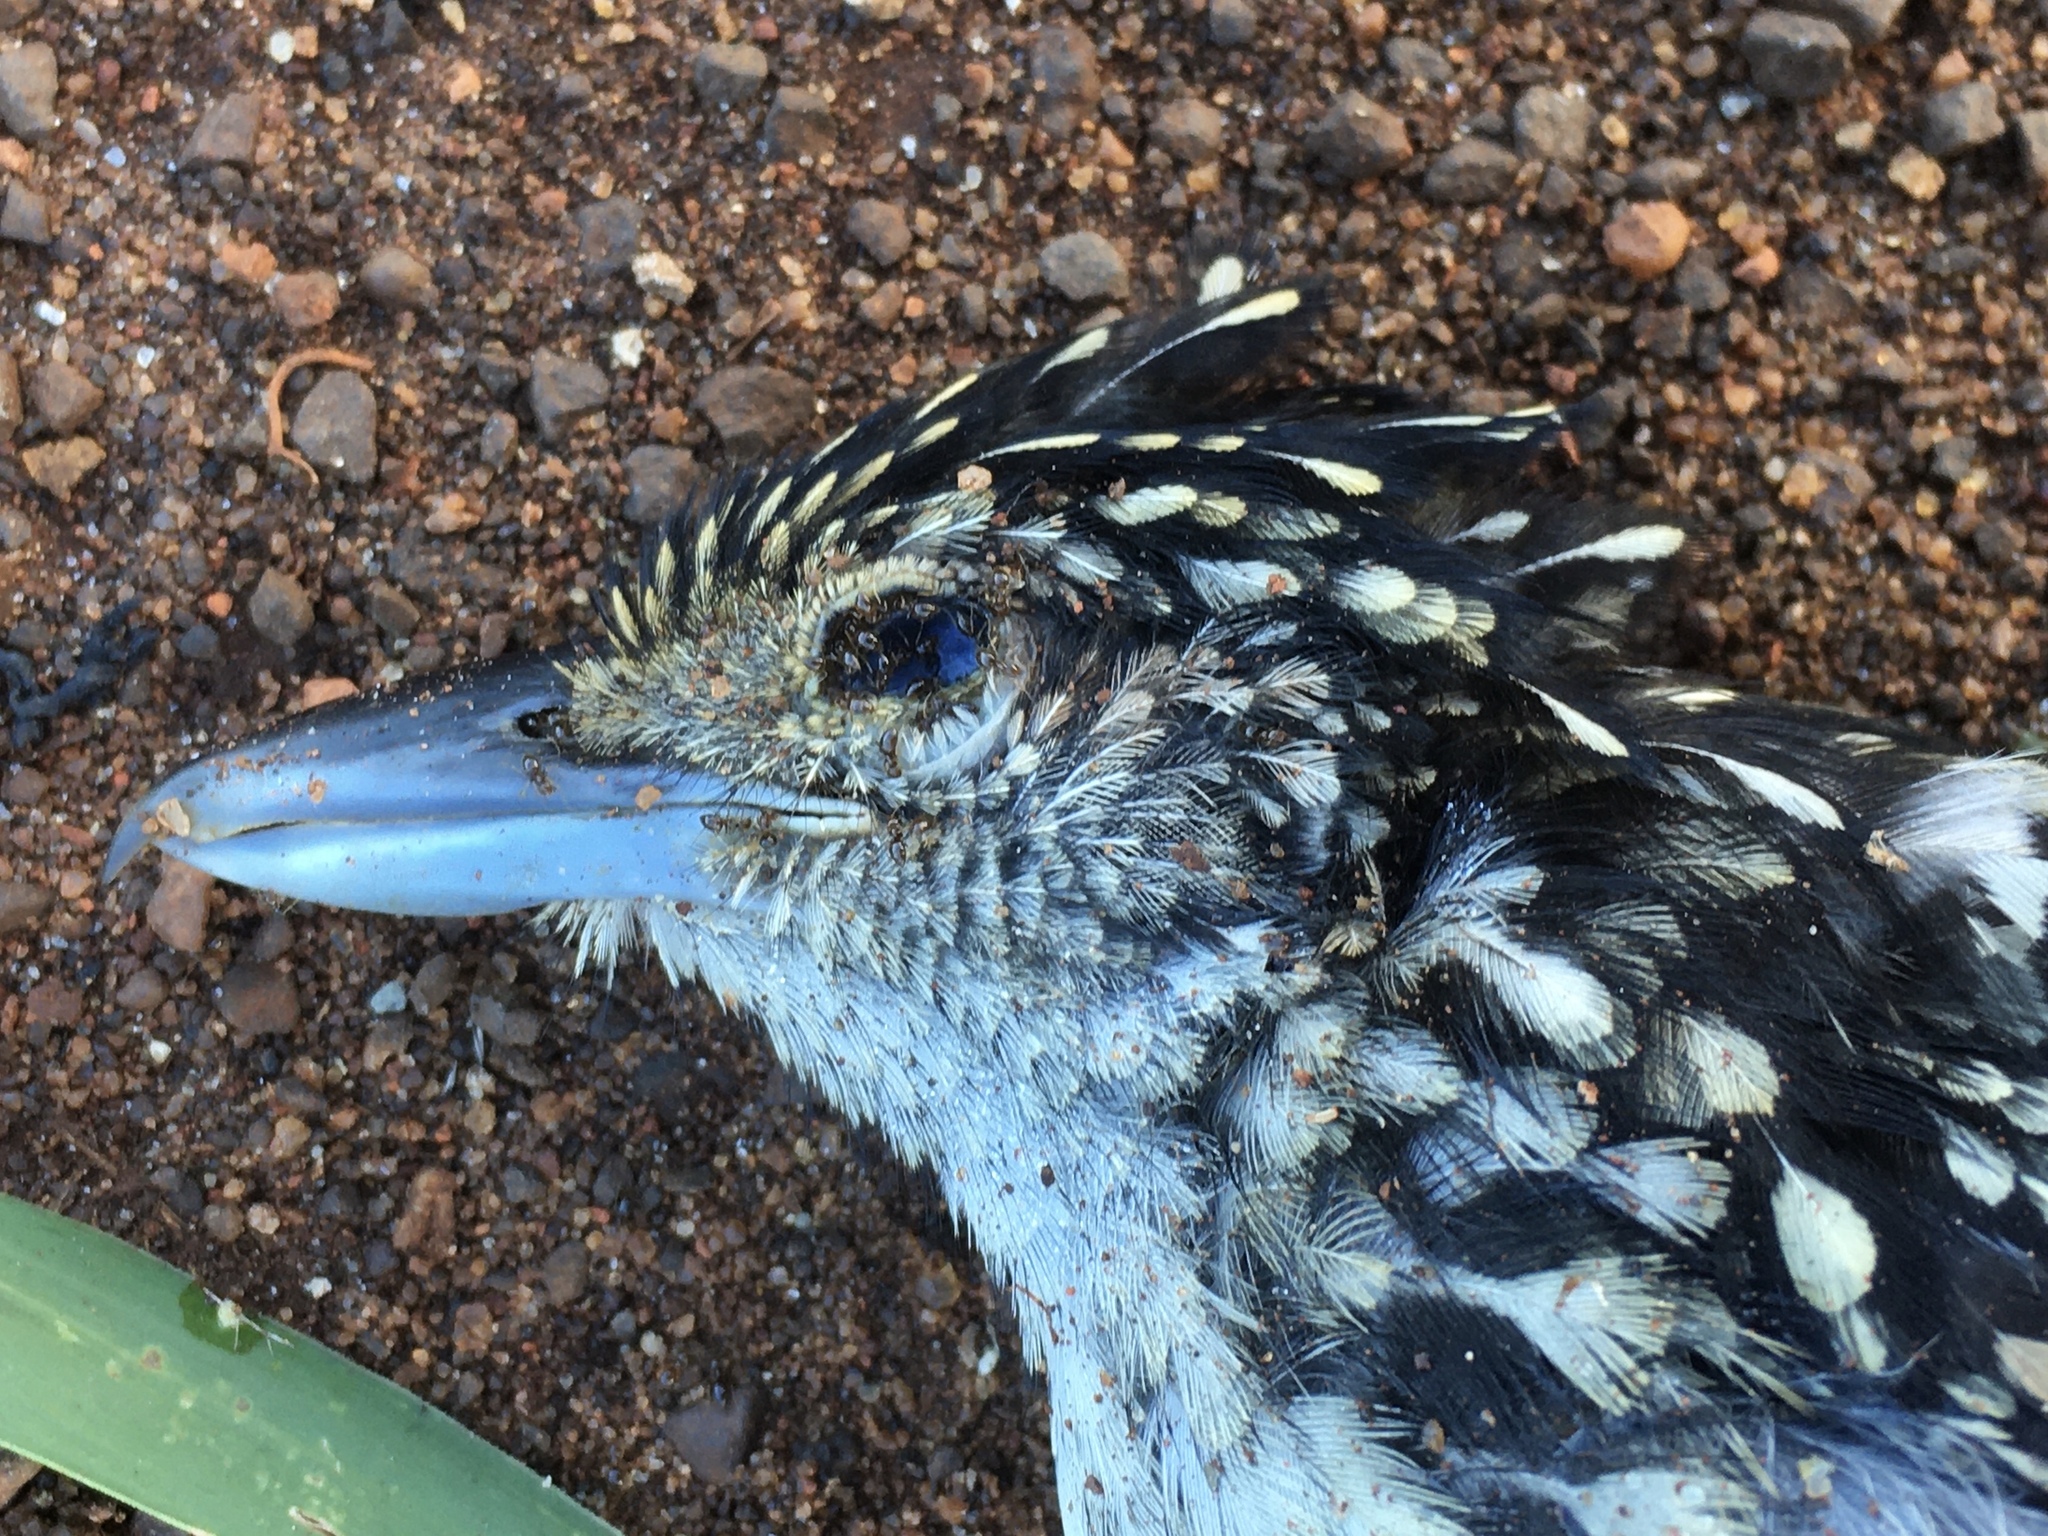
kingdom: Animalia
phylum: Chordata
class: Aves
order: Passeriformes
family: Thamnophilidae
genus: Hypoedaleus
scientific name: Hypoedaleus guttatus
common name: Spot-backed antshrike
